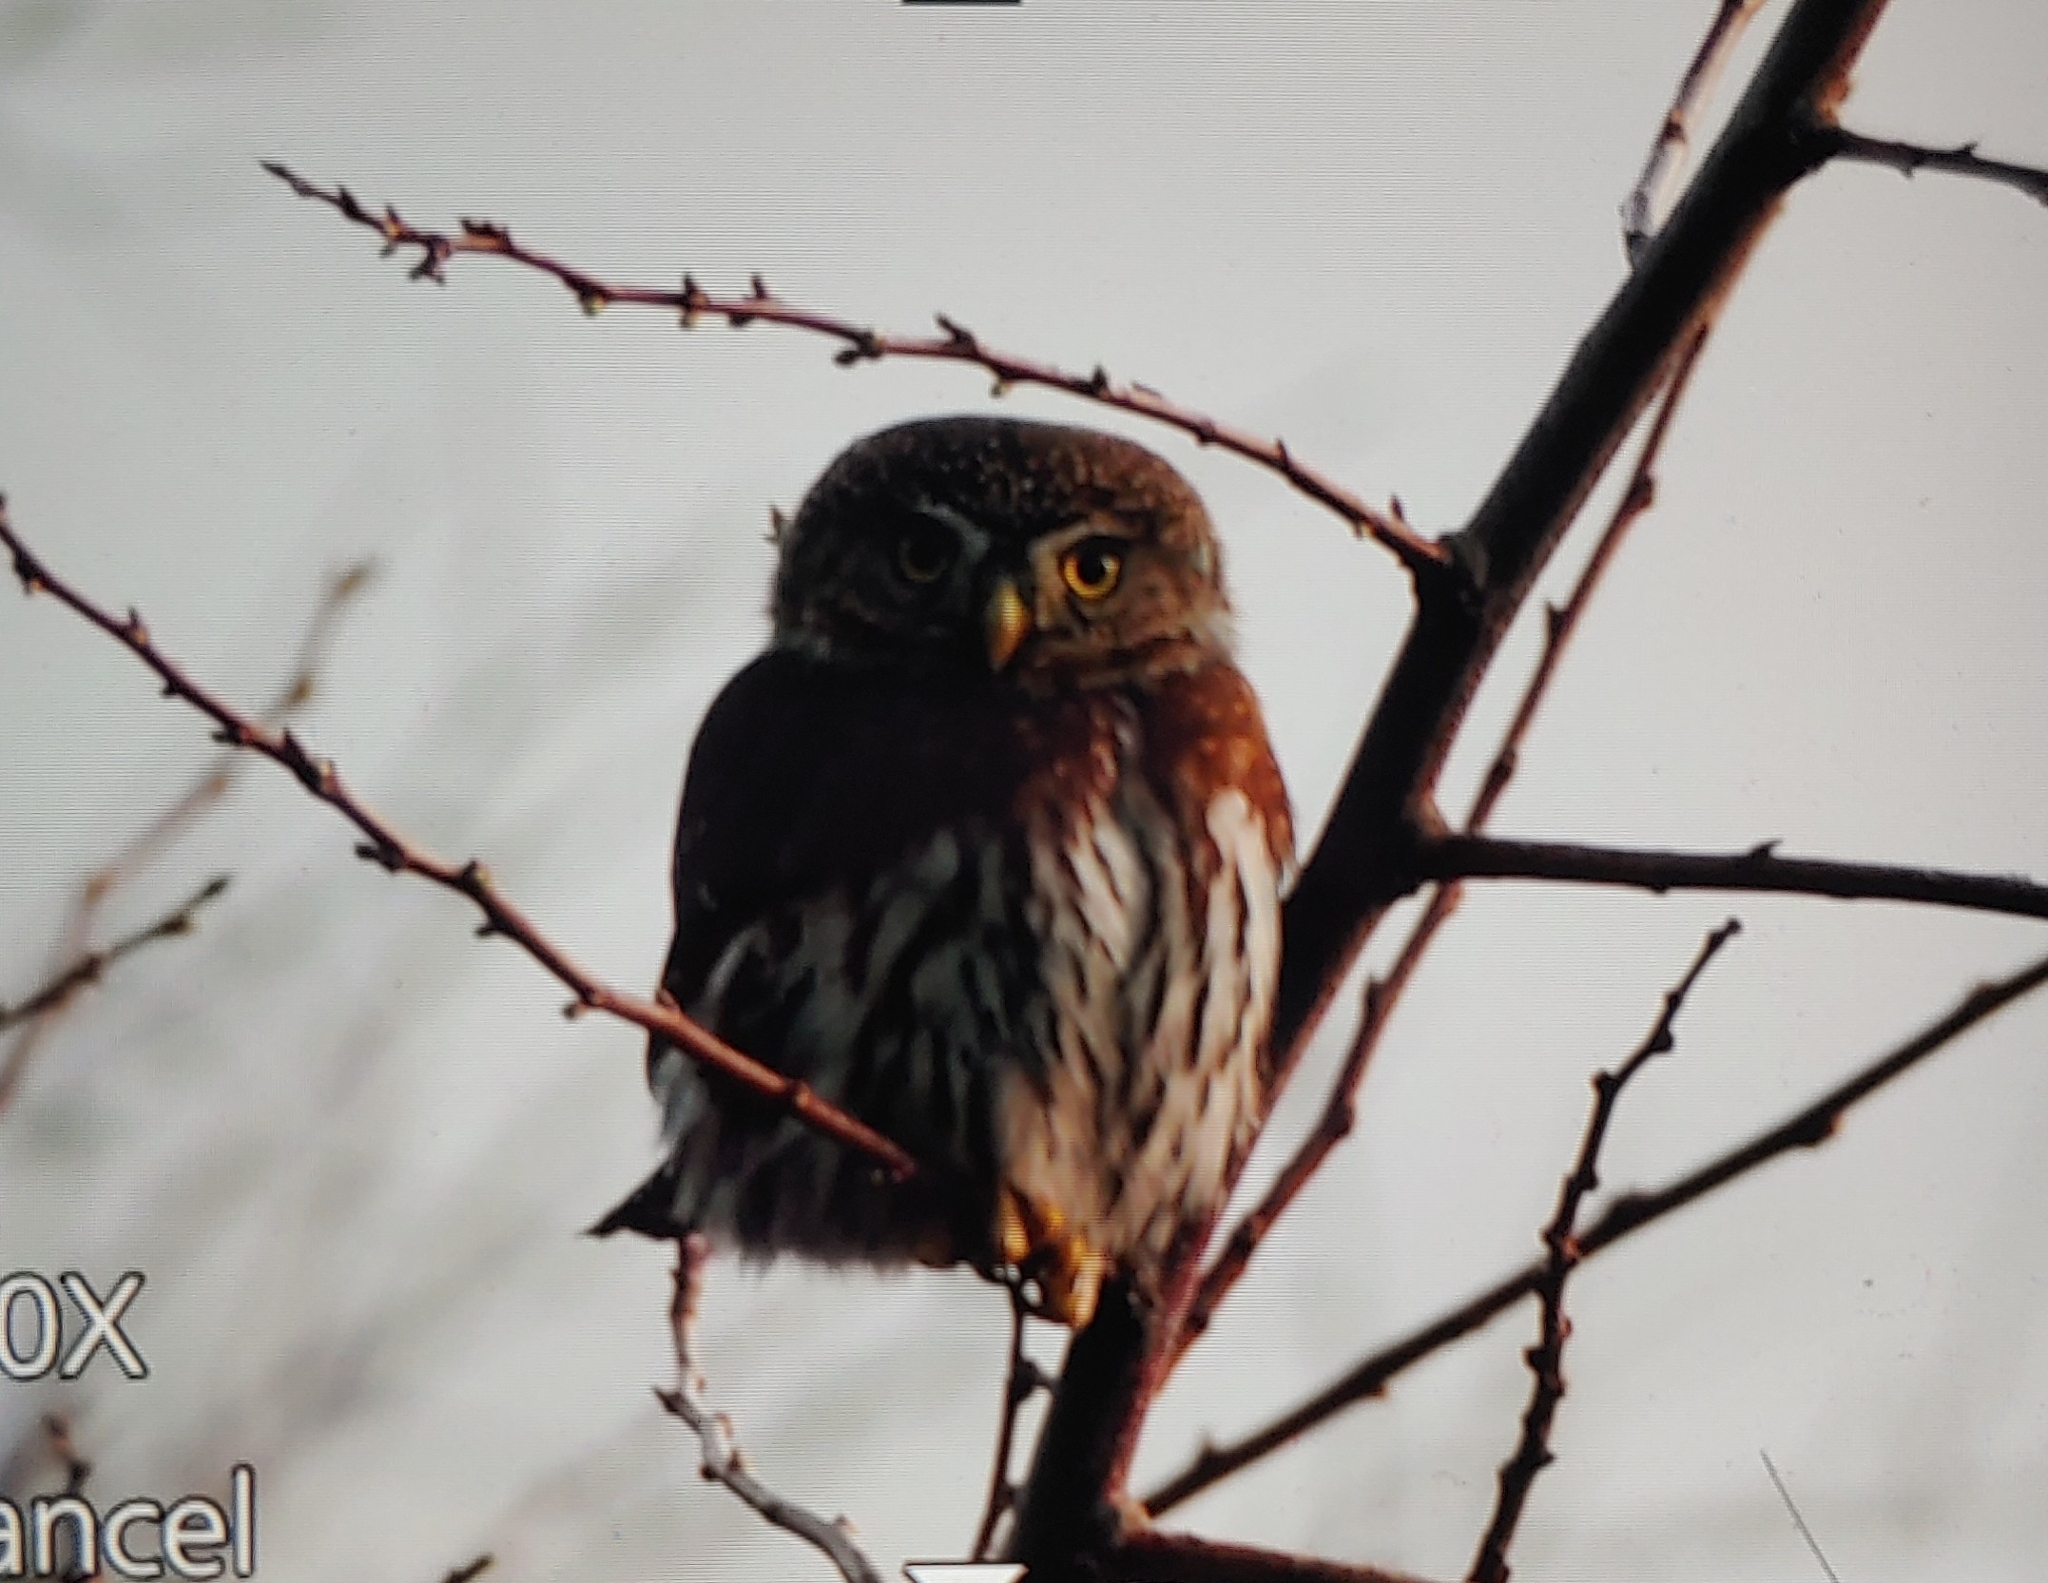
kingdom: Animalia
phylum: Chordata
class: Aves
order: Strigiformes
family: Strigidae
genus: Glaucidium
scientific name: Glaucidium gnoma
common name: Northern pygmy-owl
